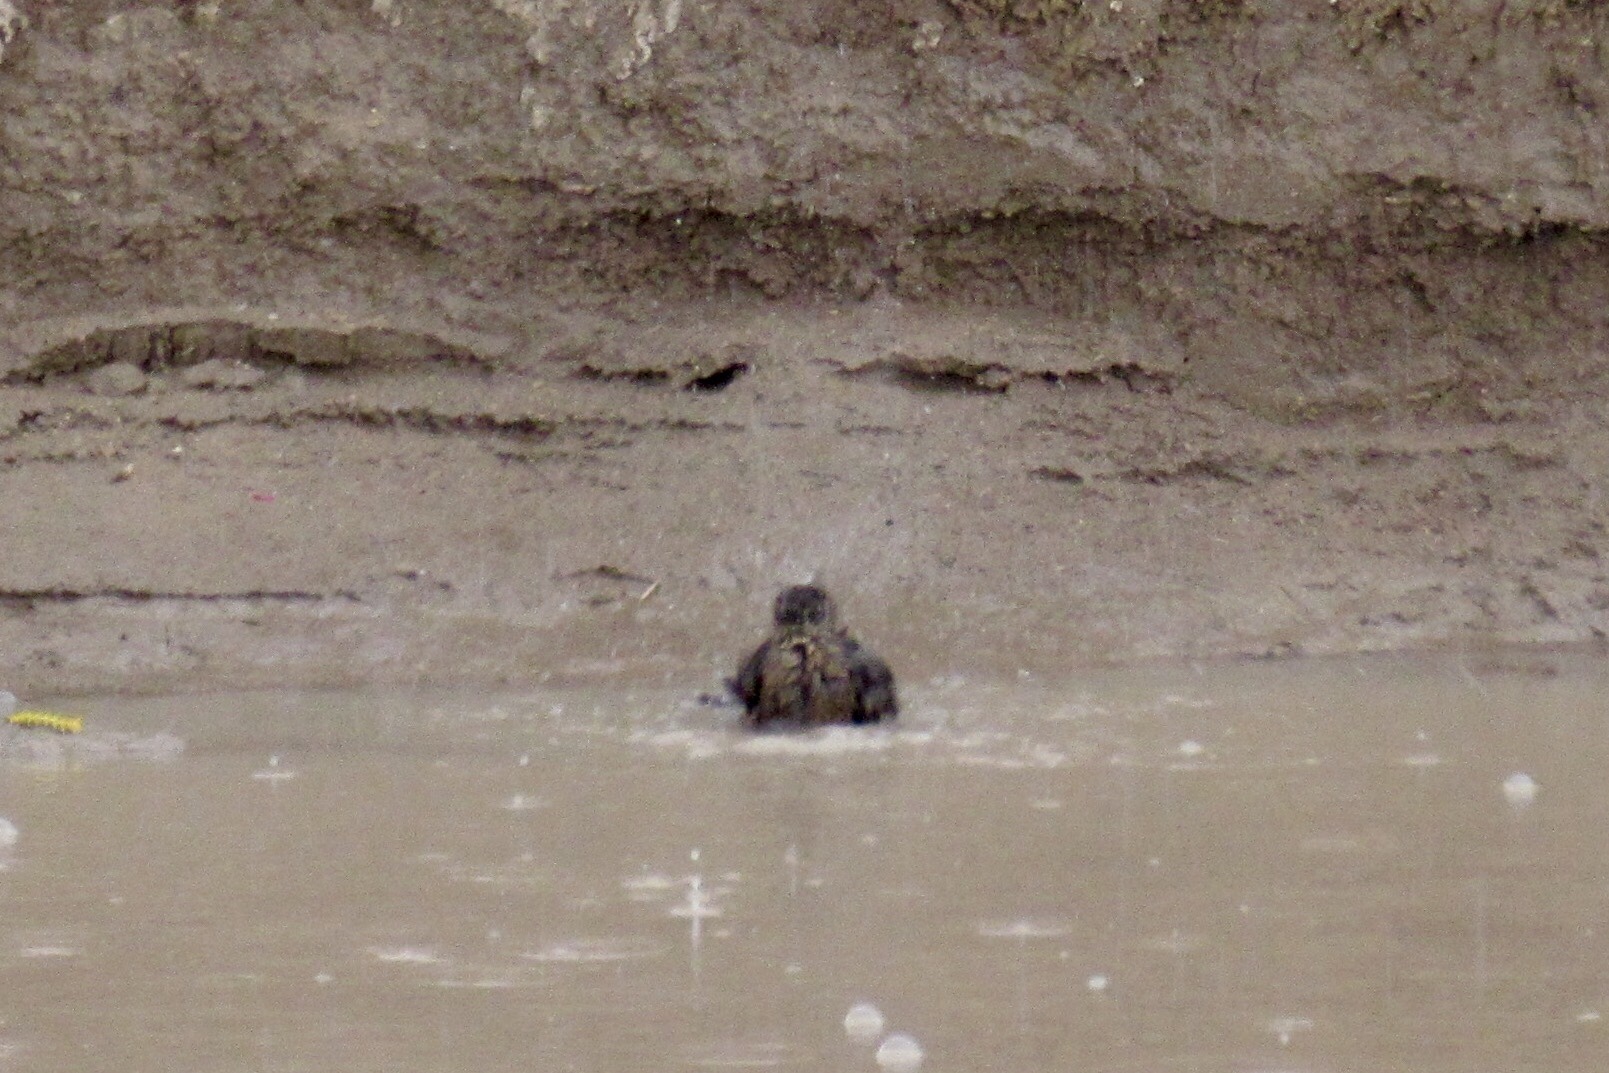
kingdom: Animalia
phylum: Chordata
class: Aves
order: Passeriformes
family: Icteridae
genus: Quiscalus
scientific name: Quiscalus mexicanus
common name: Great-tailed grackle
